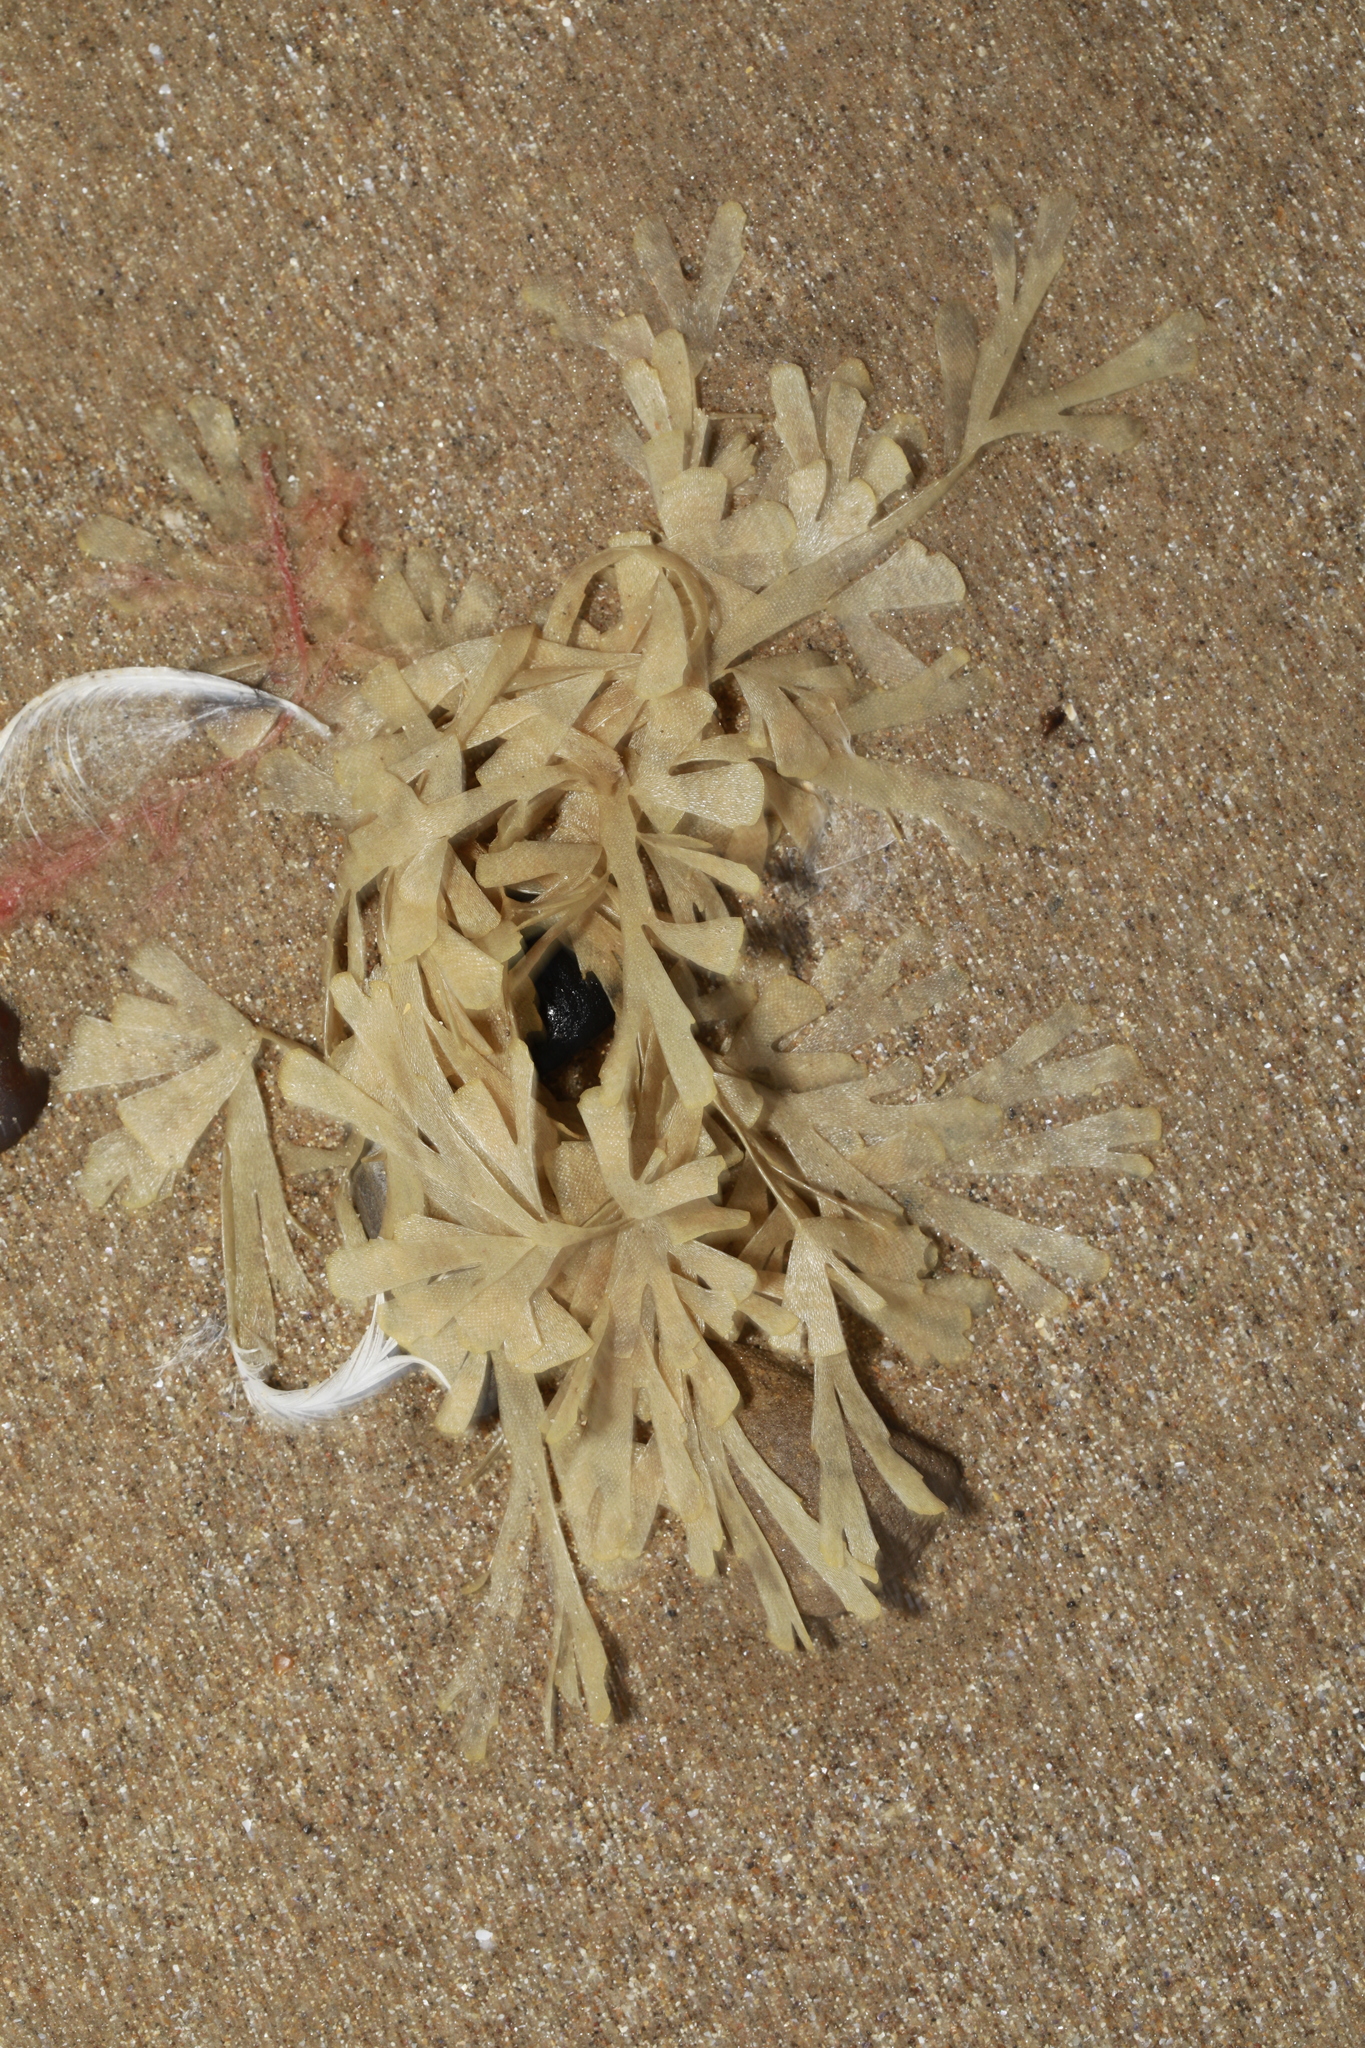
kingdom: Animalia
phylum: Bryozoa
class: Gymnolaemata
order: Cheilostomatida
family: Flustridae
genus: Flustra
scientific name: Flustra foliacea
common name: Hornwrack
